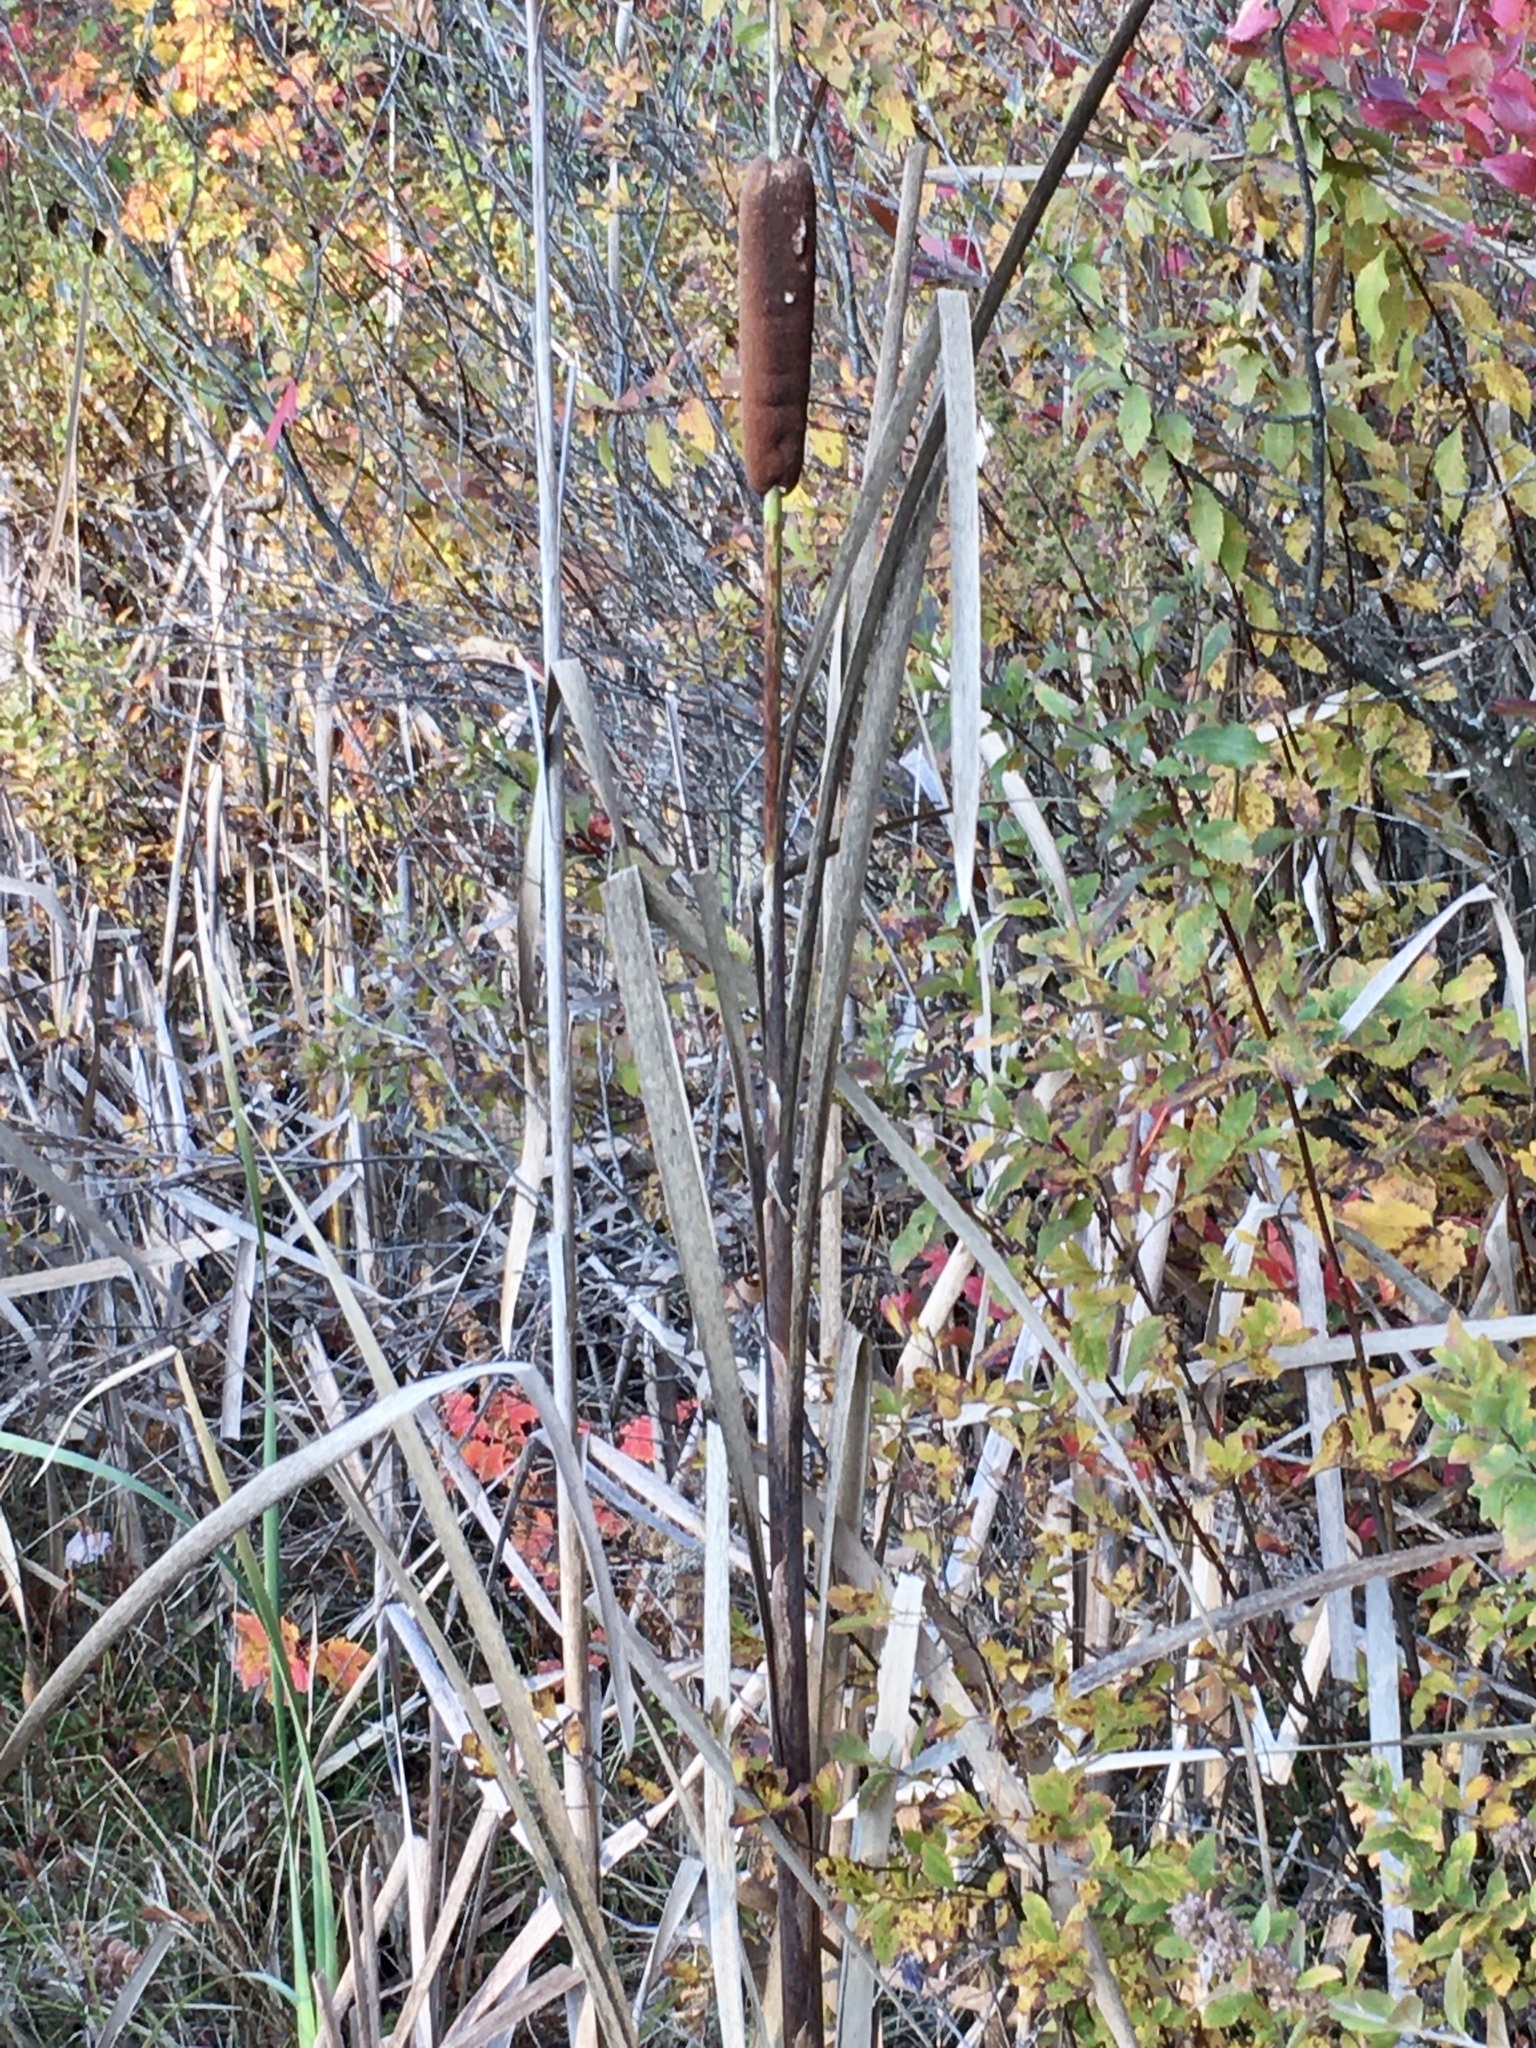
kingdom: Plantae
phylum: Tracheophyta
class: Liliopsida
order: Poales
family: Typhaceae
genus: Typha
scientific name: Typha latifolia
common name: Broadleaf cattail
